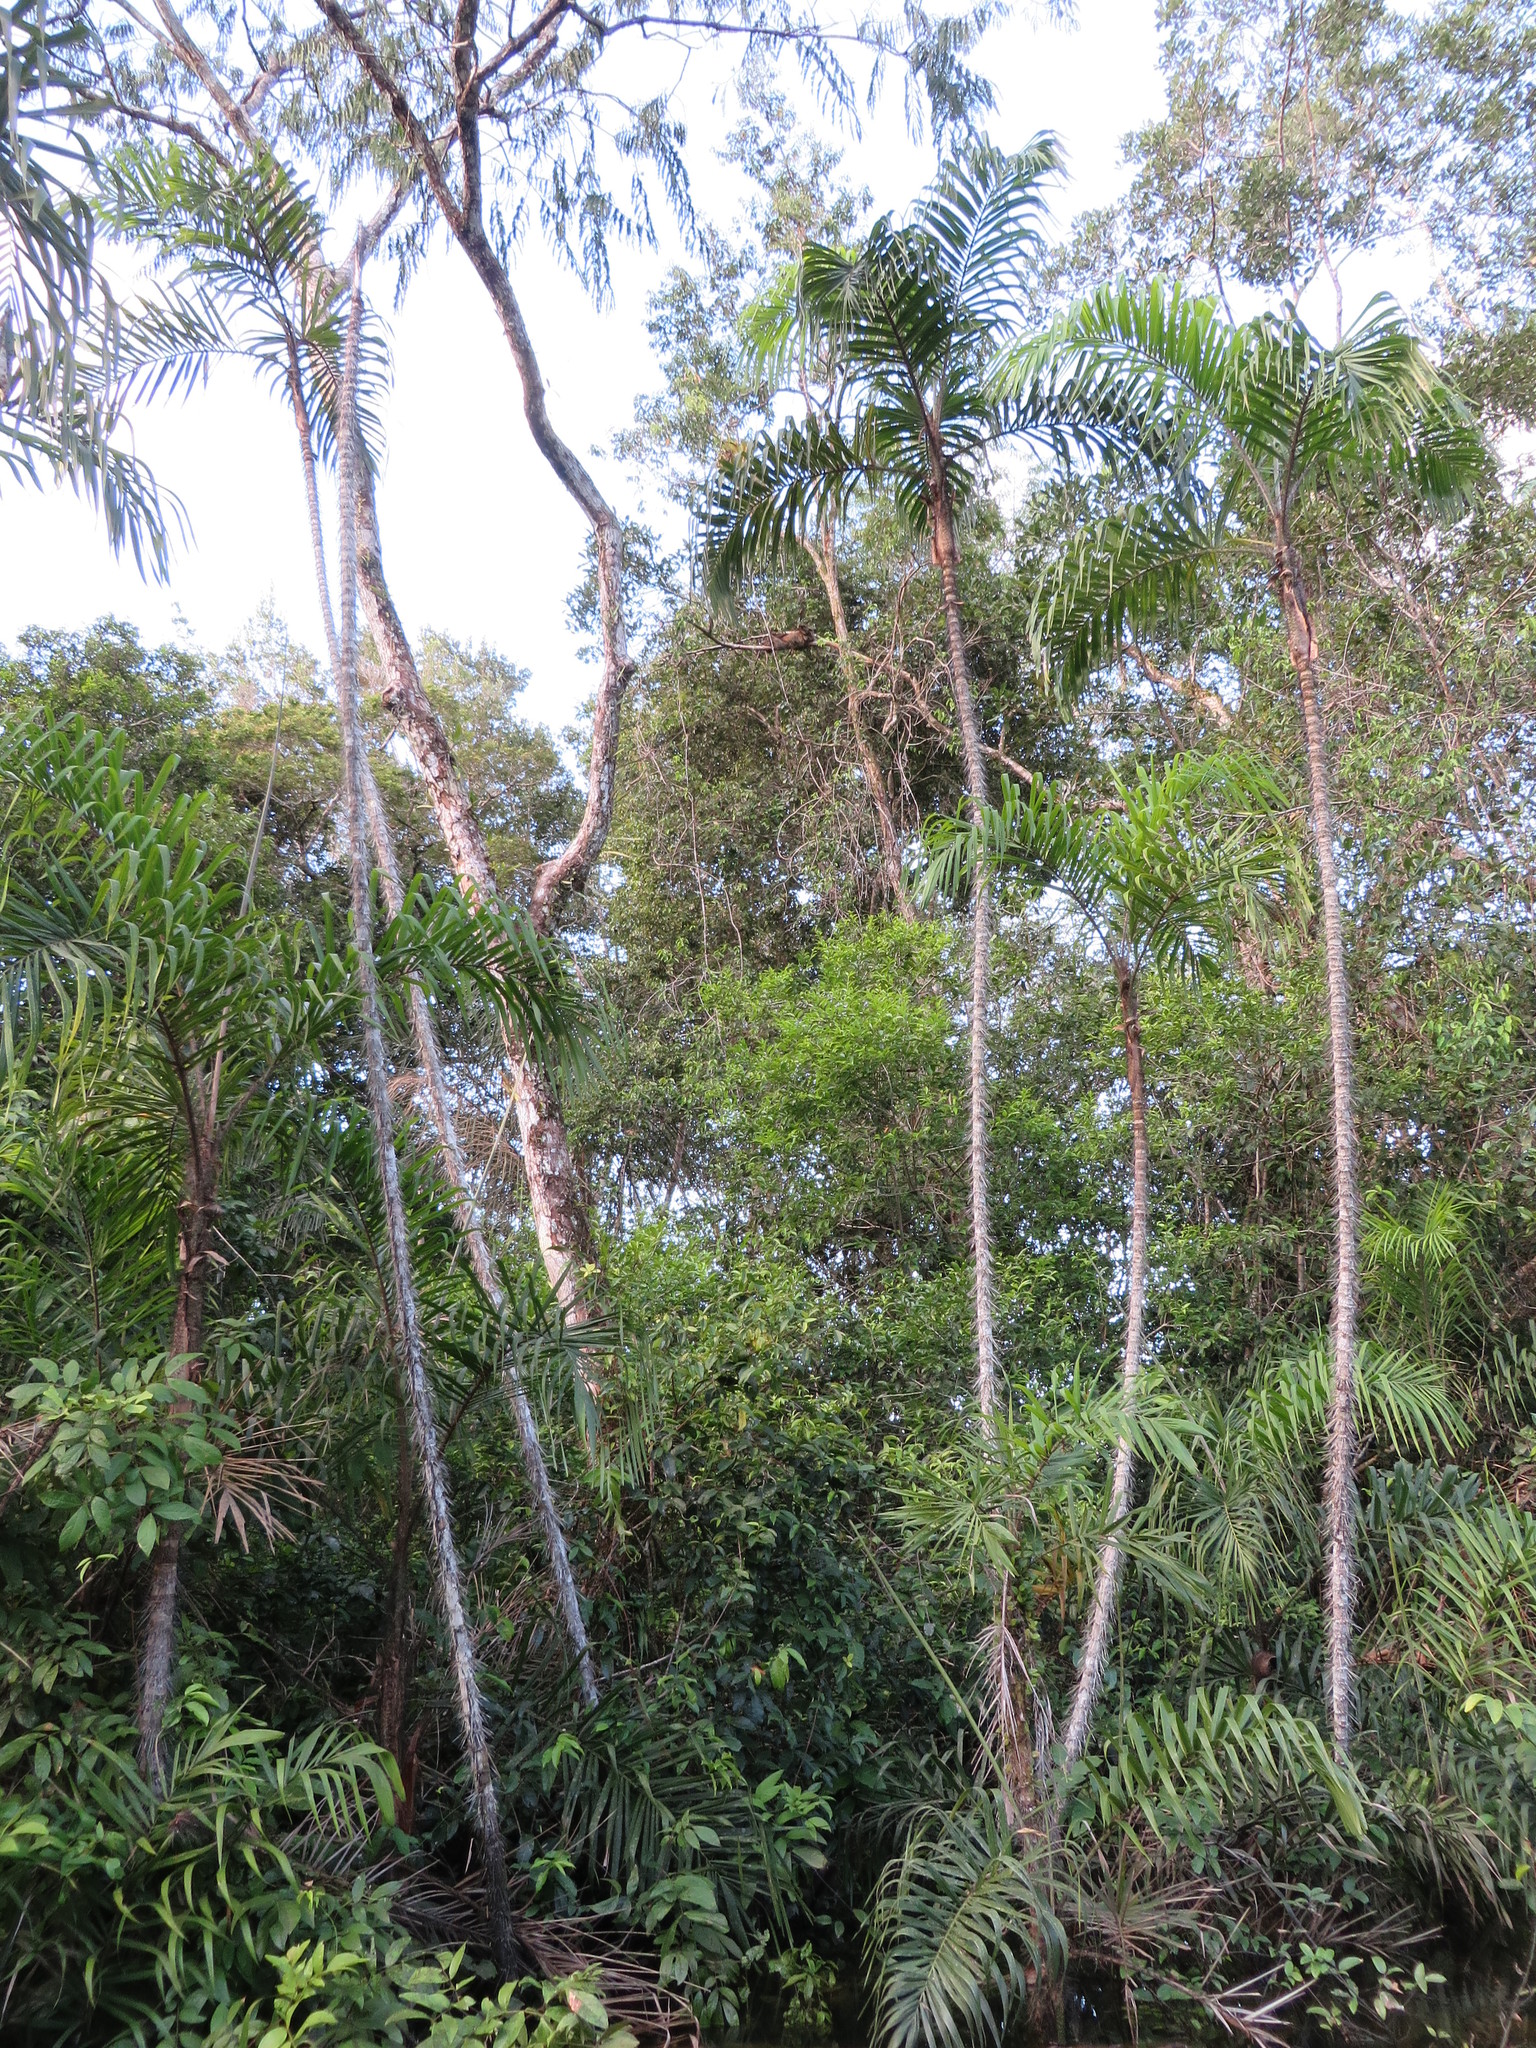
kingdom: Plantae
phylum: Tracheophyta
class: Liliopsida
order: Arecales
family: Arecaceae
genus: Bactris
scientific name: Bactris riparia
